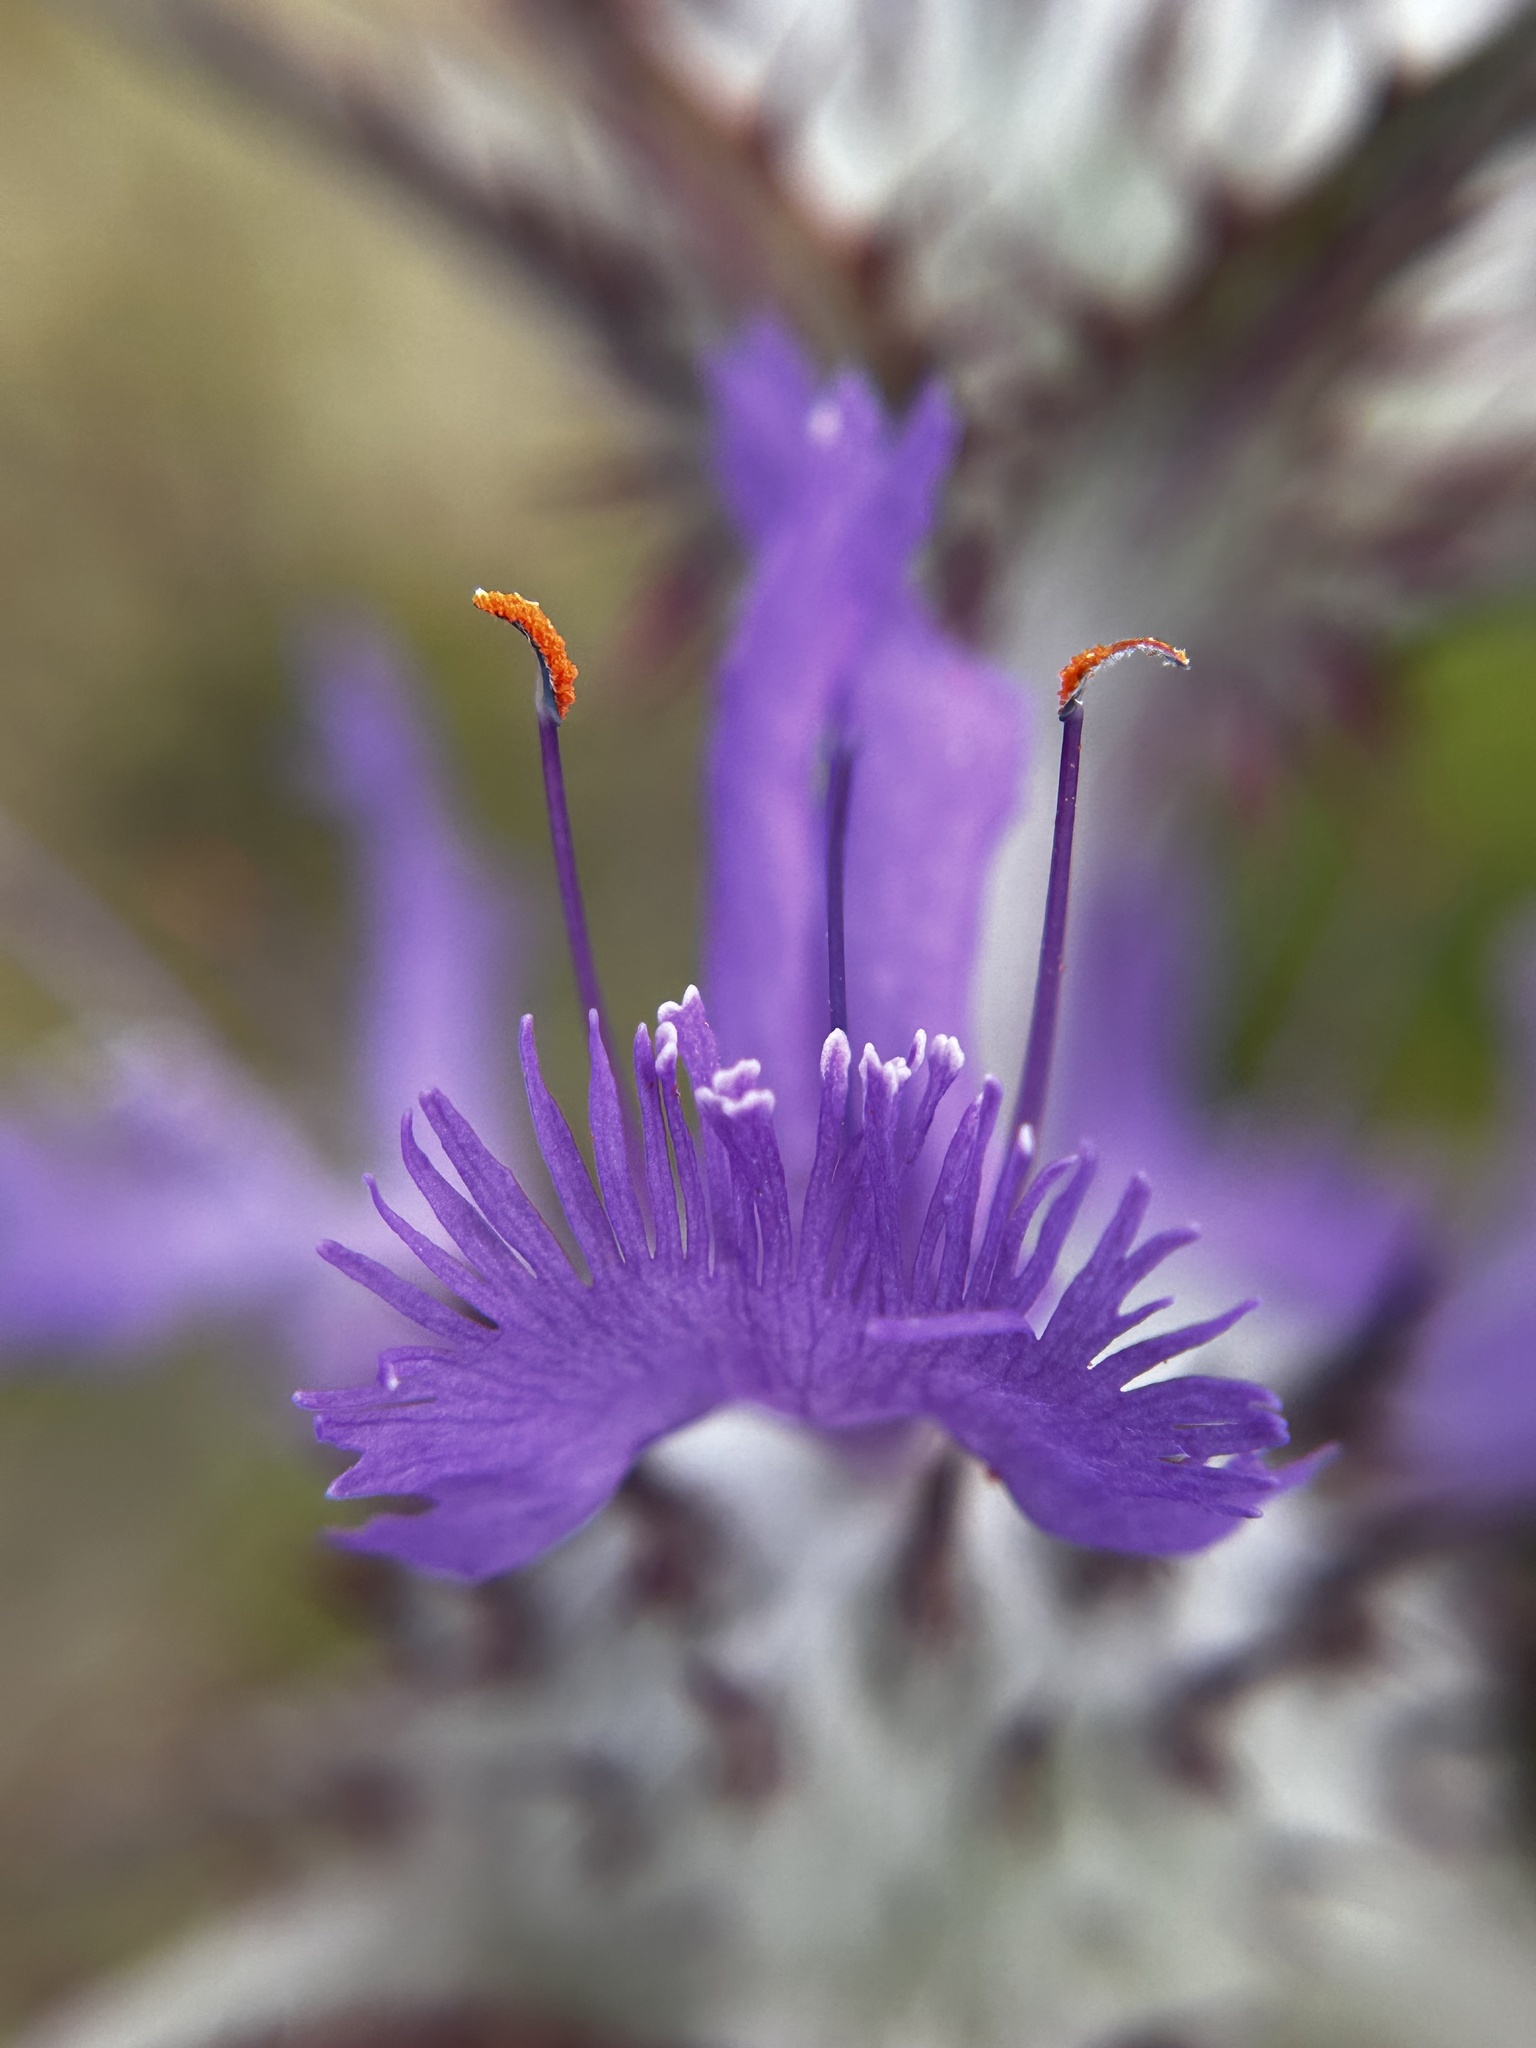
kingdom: Plantae
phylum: Tracheophyta
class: Magnoliopsida
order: Lamiales
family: Lamiaceae
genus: Salvia
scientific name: Salvia carduacea
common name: Thistle sage
